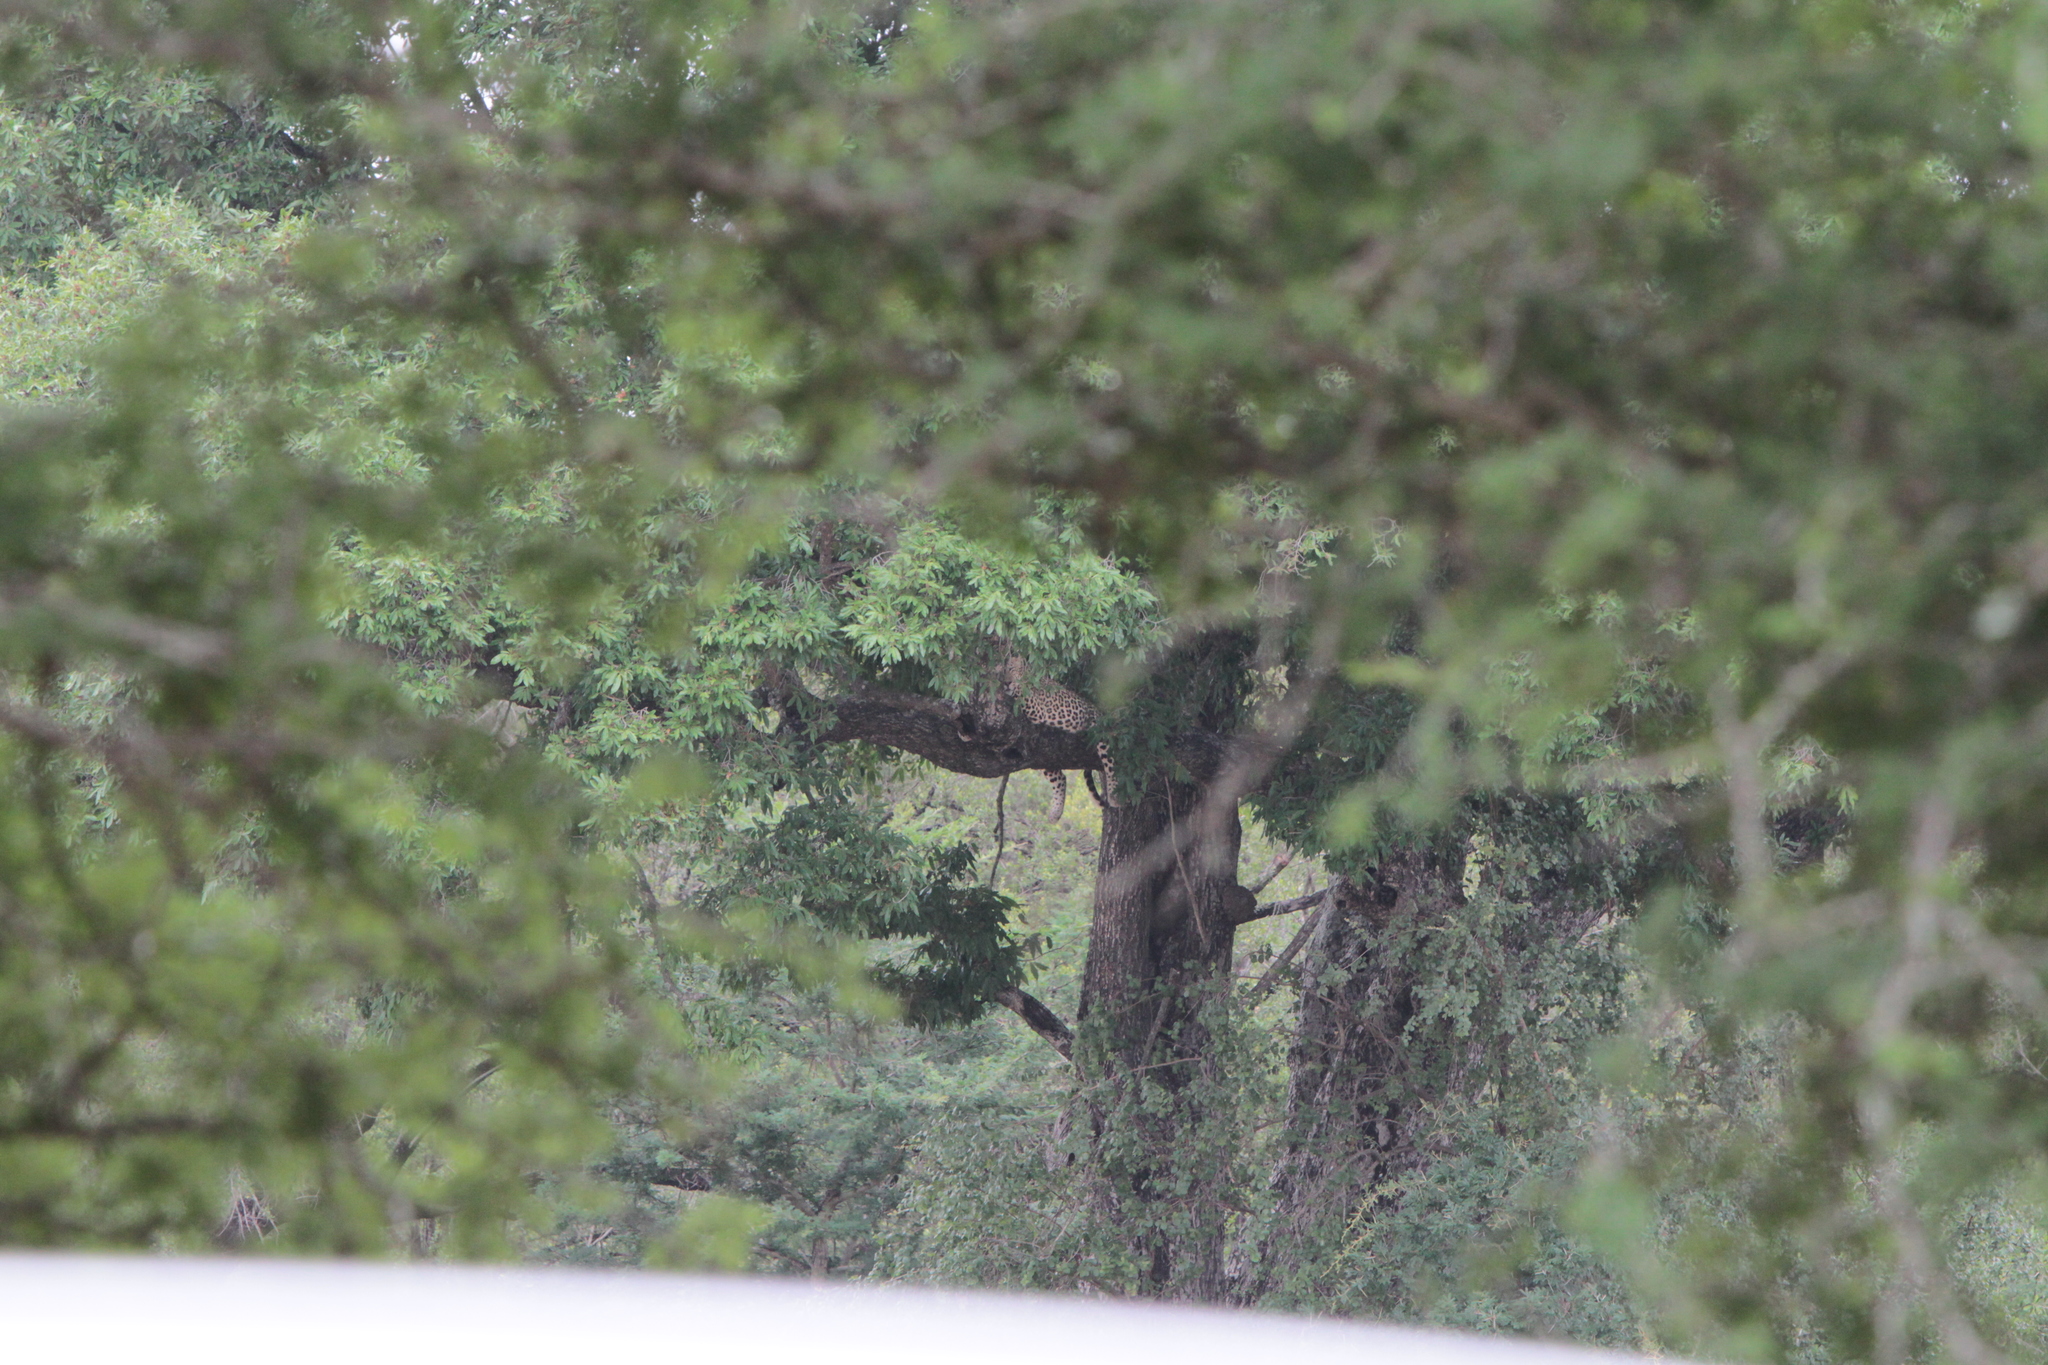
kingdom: Animalia
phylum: Chordata
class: Mammalia
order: Carnivora
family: Felidae
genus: Panthera
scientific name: Panthera pardus
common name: Leopard
